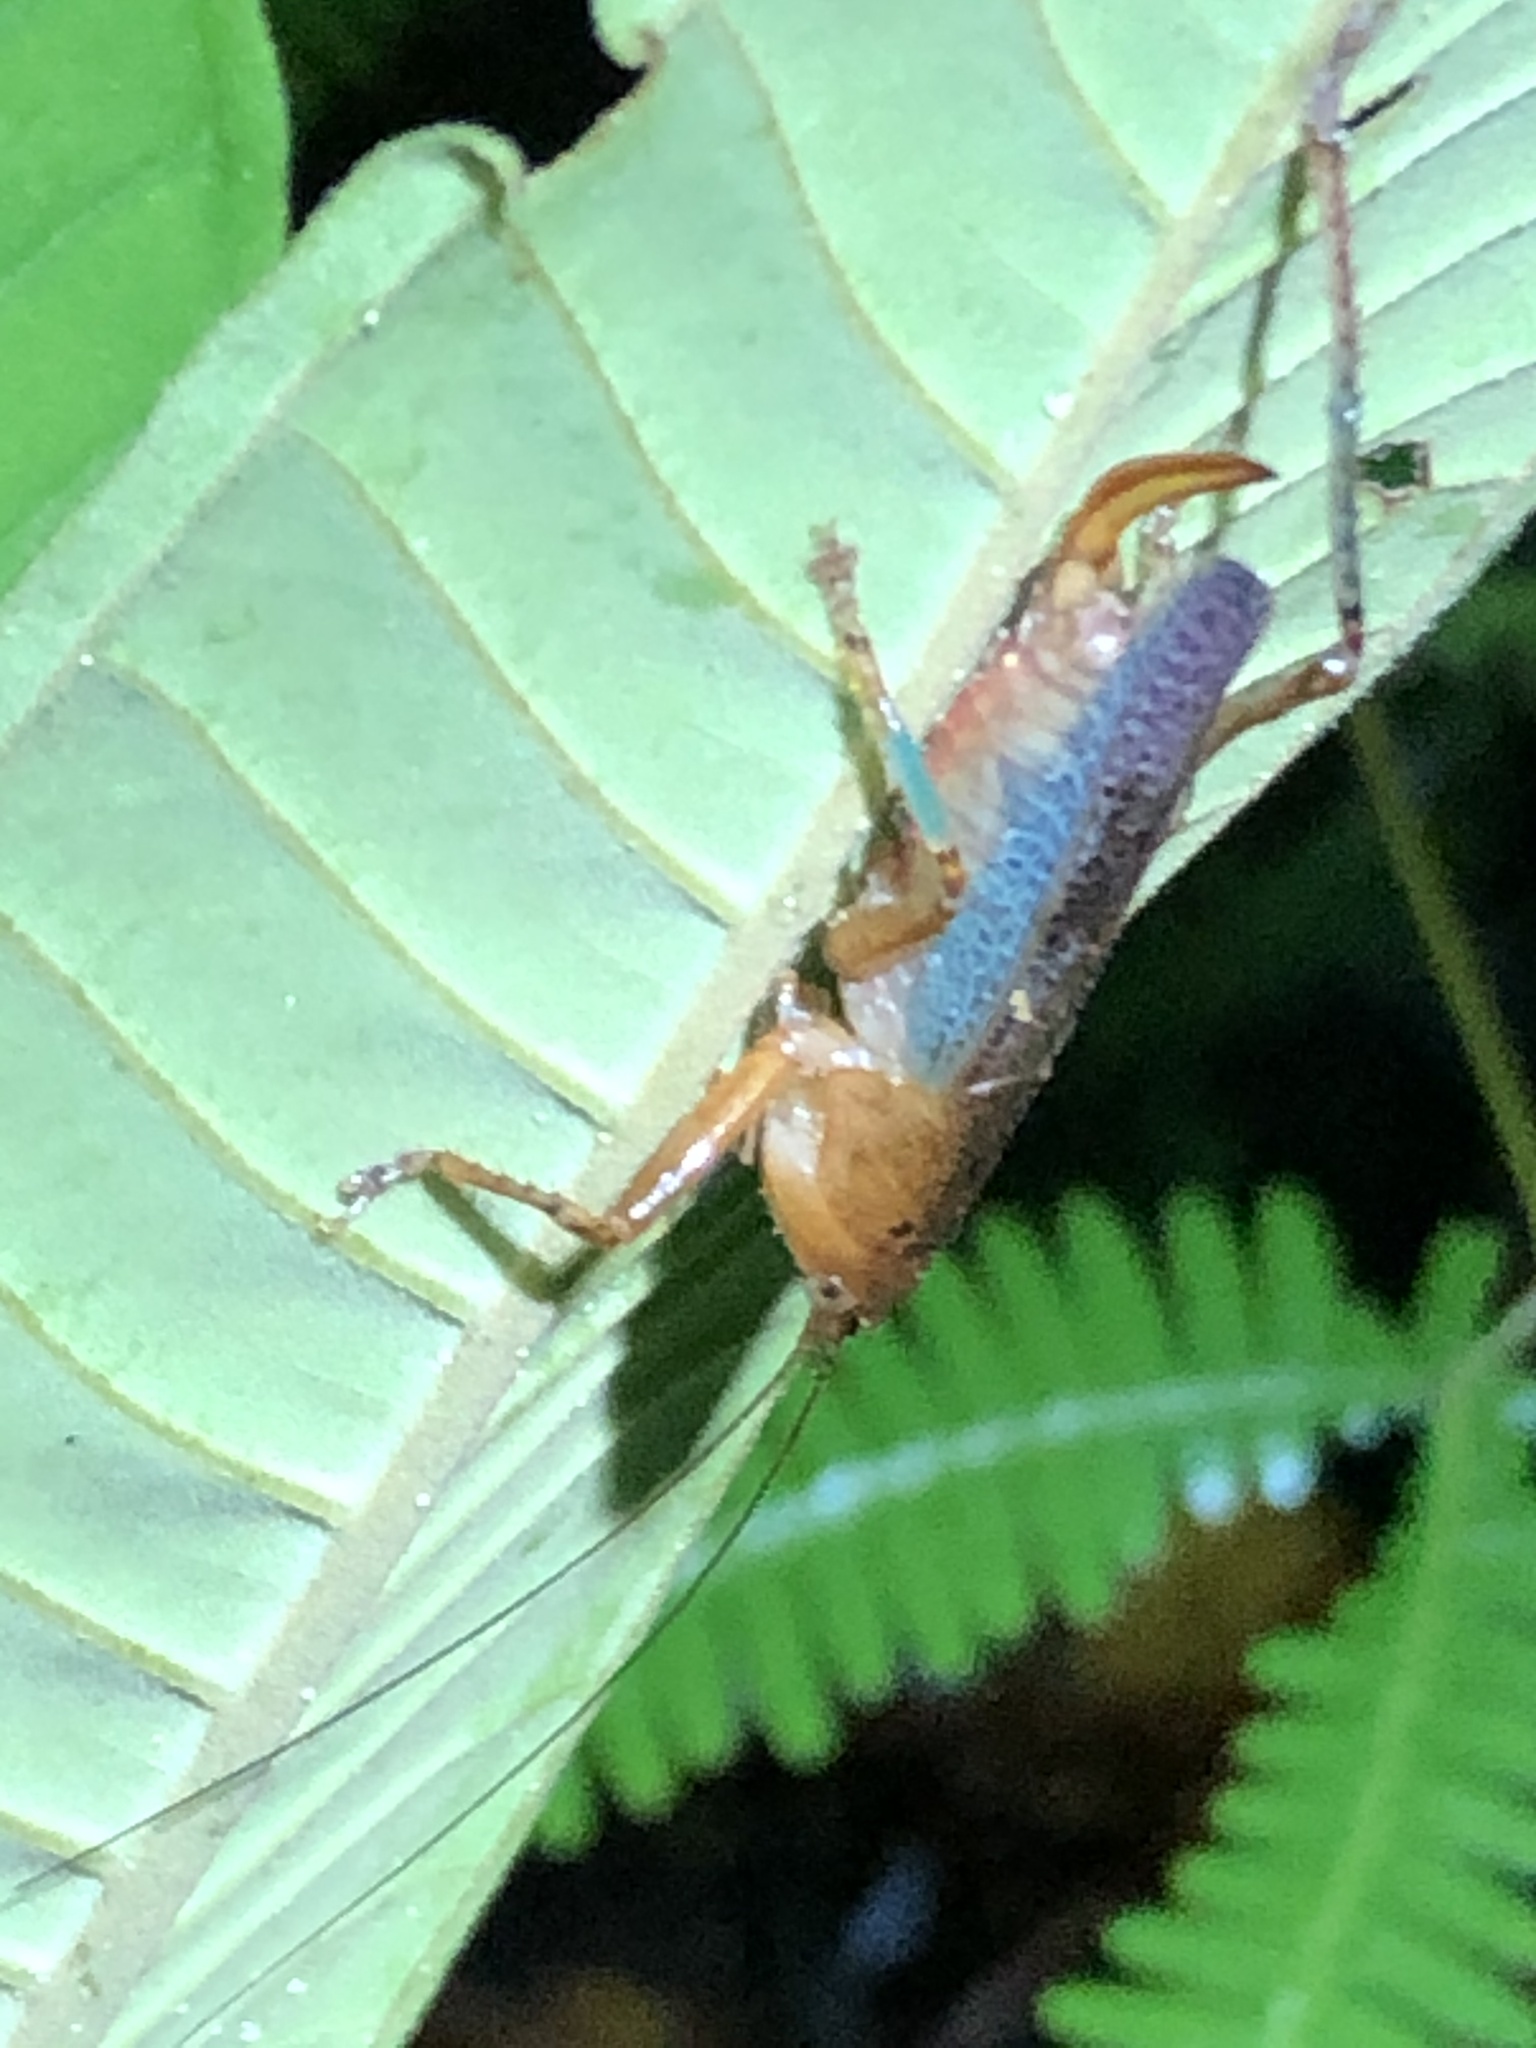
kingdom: Animalia
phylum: Arthropoda
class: Insecta
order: Orthoptera
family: Tettigoniidae
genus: Eschatoceras
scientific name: Eschatoceras bipunctatus
